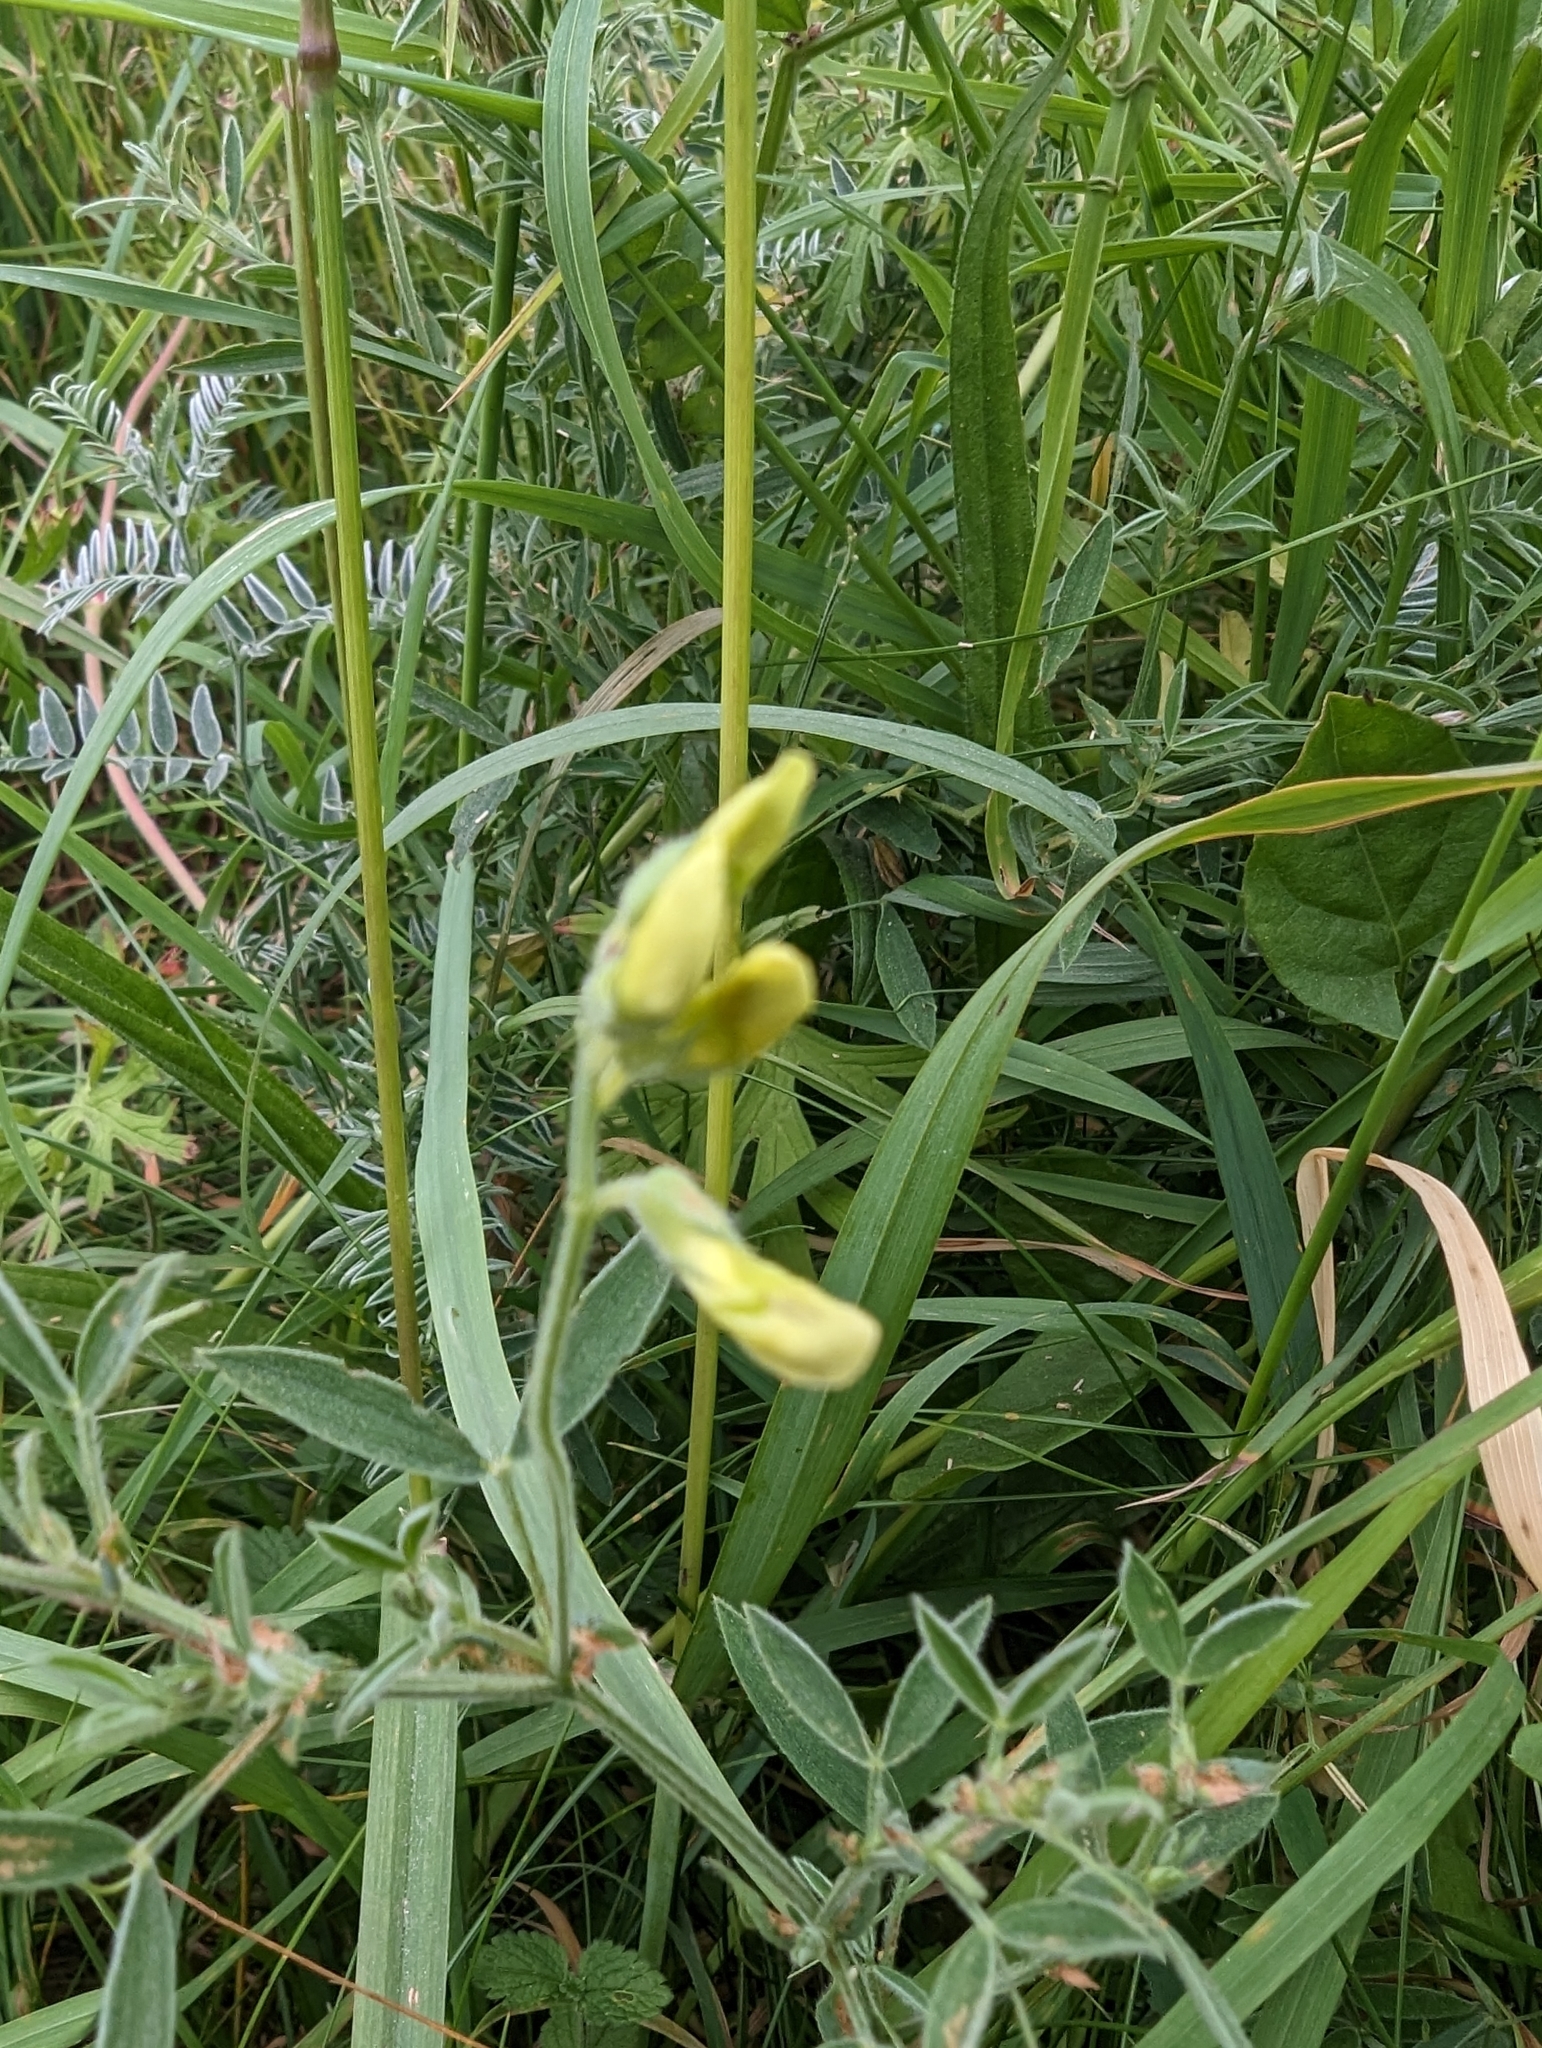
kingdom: Plantae
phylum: Tracheophyta
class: Magnoliopsida
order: Fabales
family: Fabaceae
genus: Lathyrus
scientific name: Lathyrus pratensis
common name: Meadow vetchling
